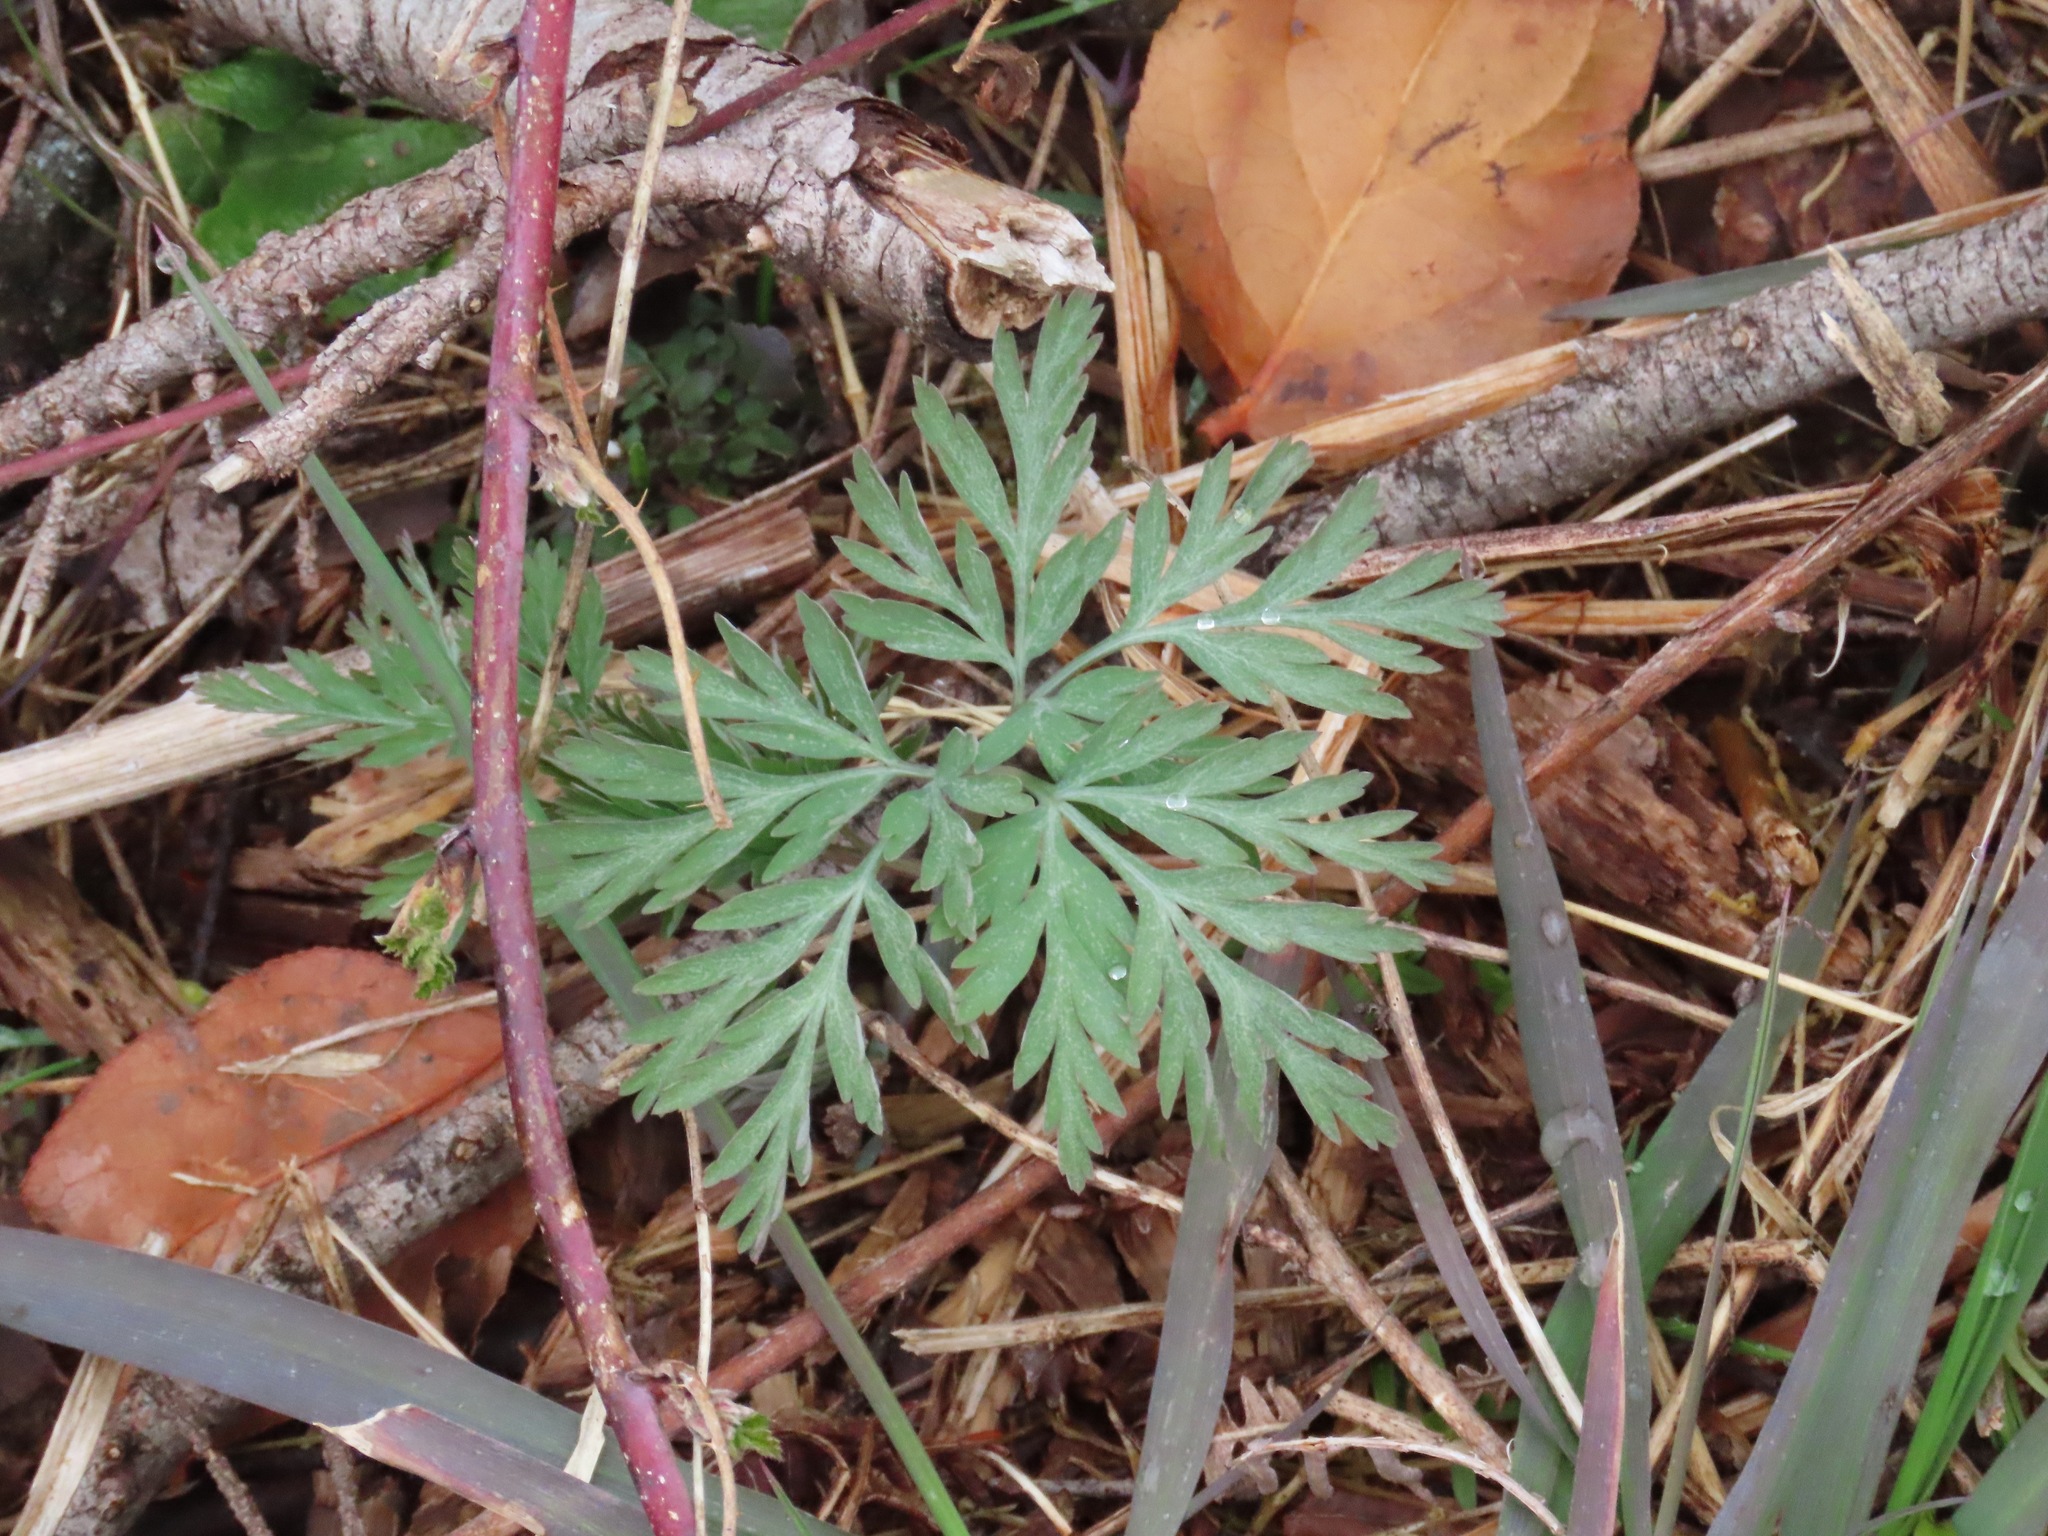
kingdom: Plantae
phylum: Tracheophyta
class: Magnoliopsida
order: Ranunculales
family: Papaveraceae
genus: Dicentra
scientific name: Dicentra formosa
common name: Bleeding-heart
